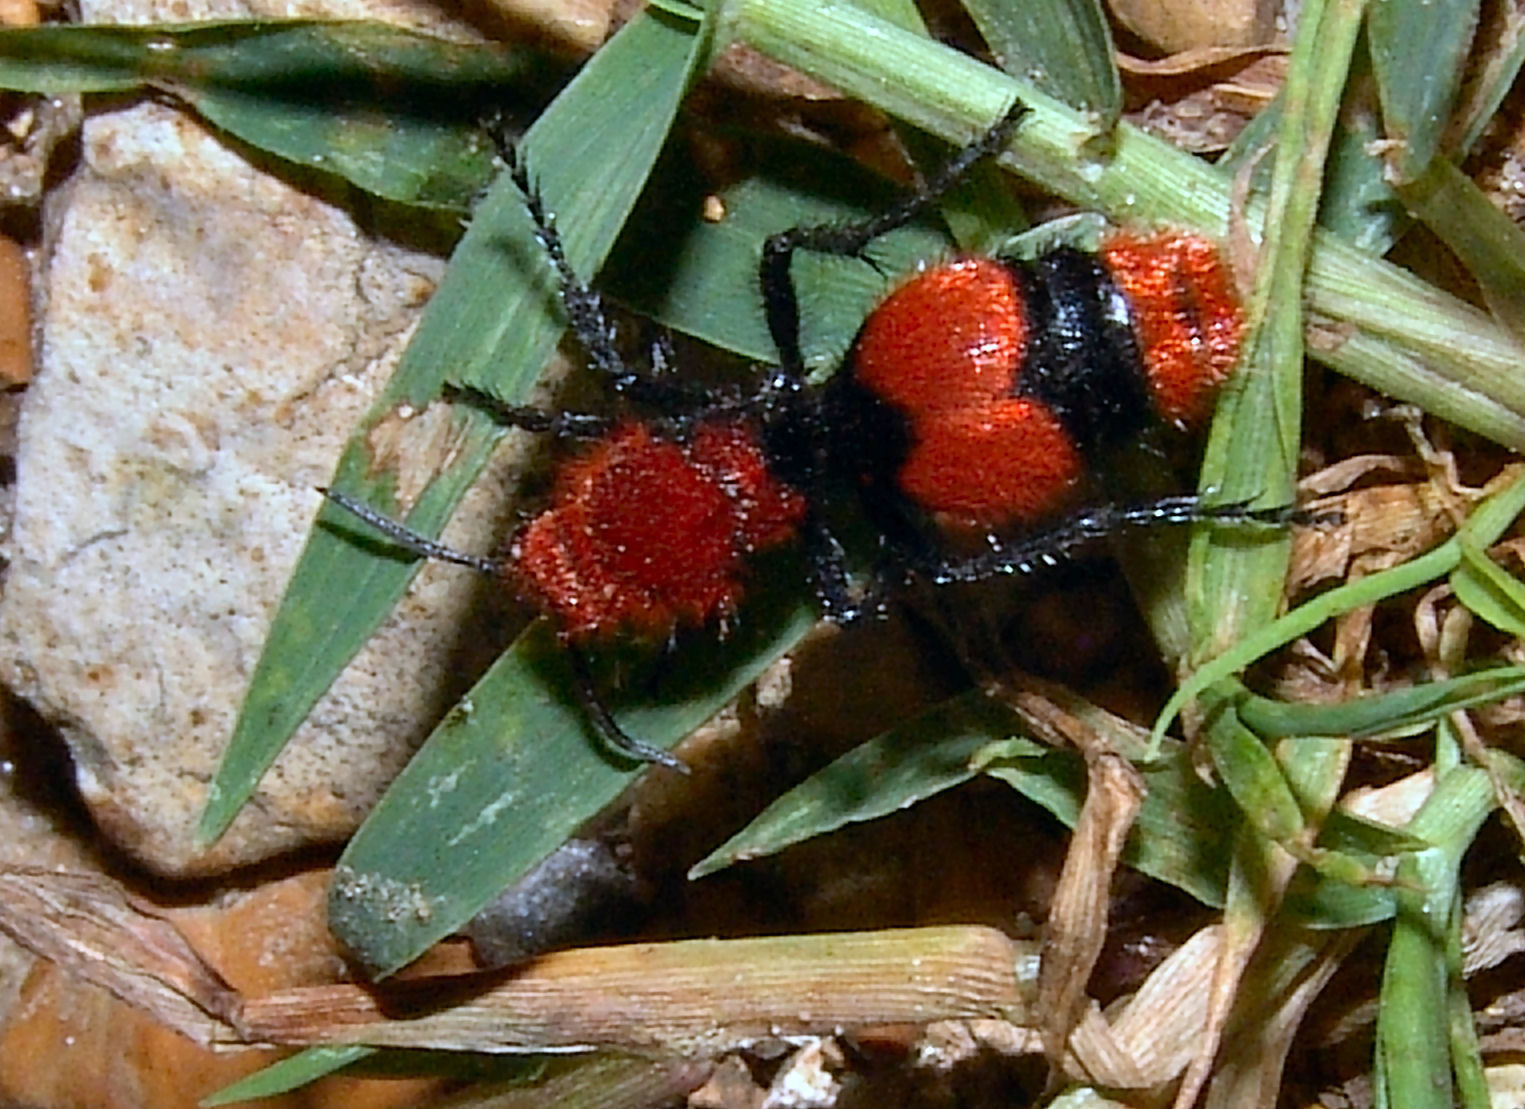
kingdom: Animalia
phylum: Arthropoda
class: Insecta
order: Hymenoptera
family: Mutillidae
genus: Dasymutilla
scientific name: Dasymutilla occidentalis
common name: Common eastern velvet ant
